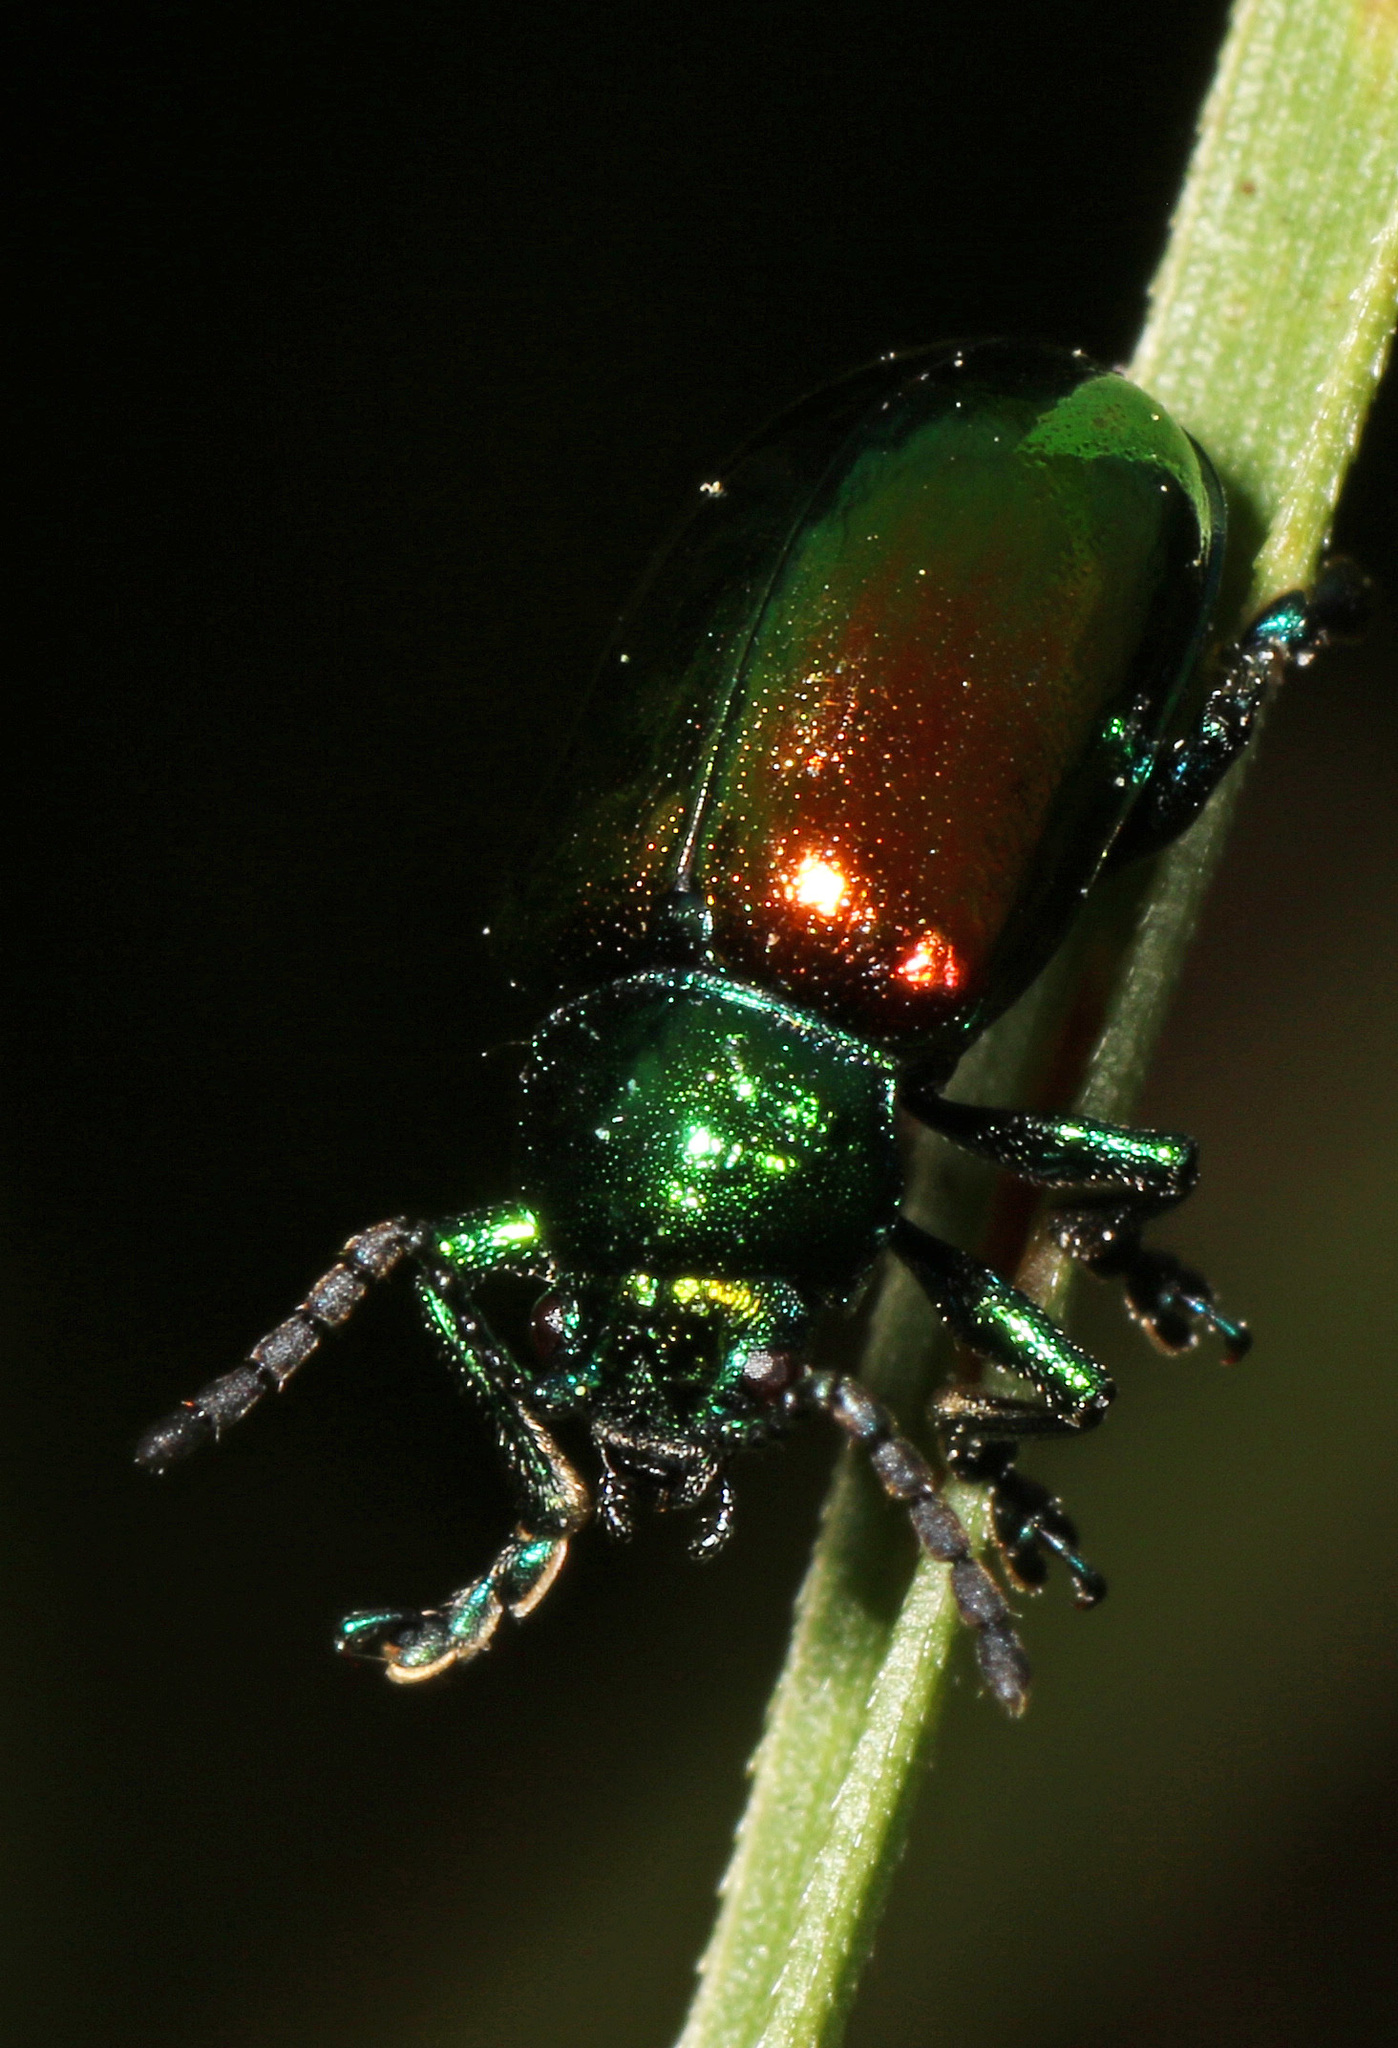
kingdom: Animalia
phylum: Arthropoda
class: Insecta
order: Coleoptera
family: Chrysomelidae
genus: Chrysochus
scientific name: Chrysochus auratus
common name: Dogbane leaf beetle
